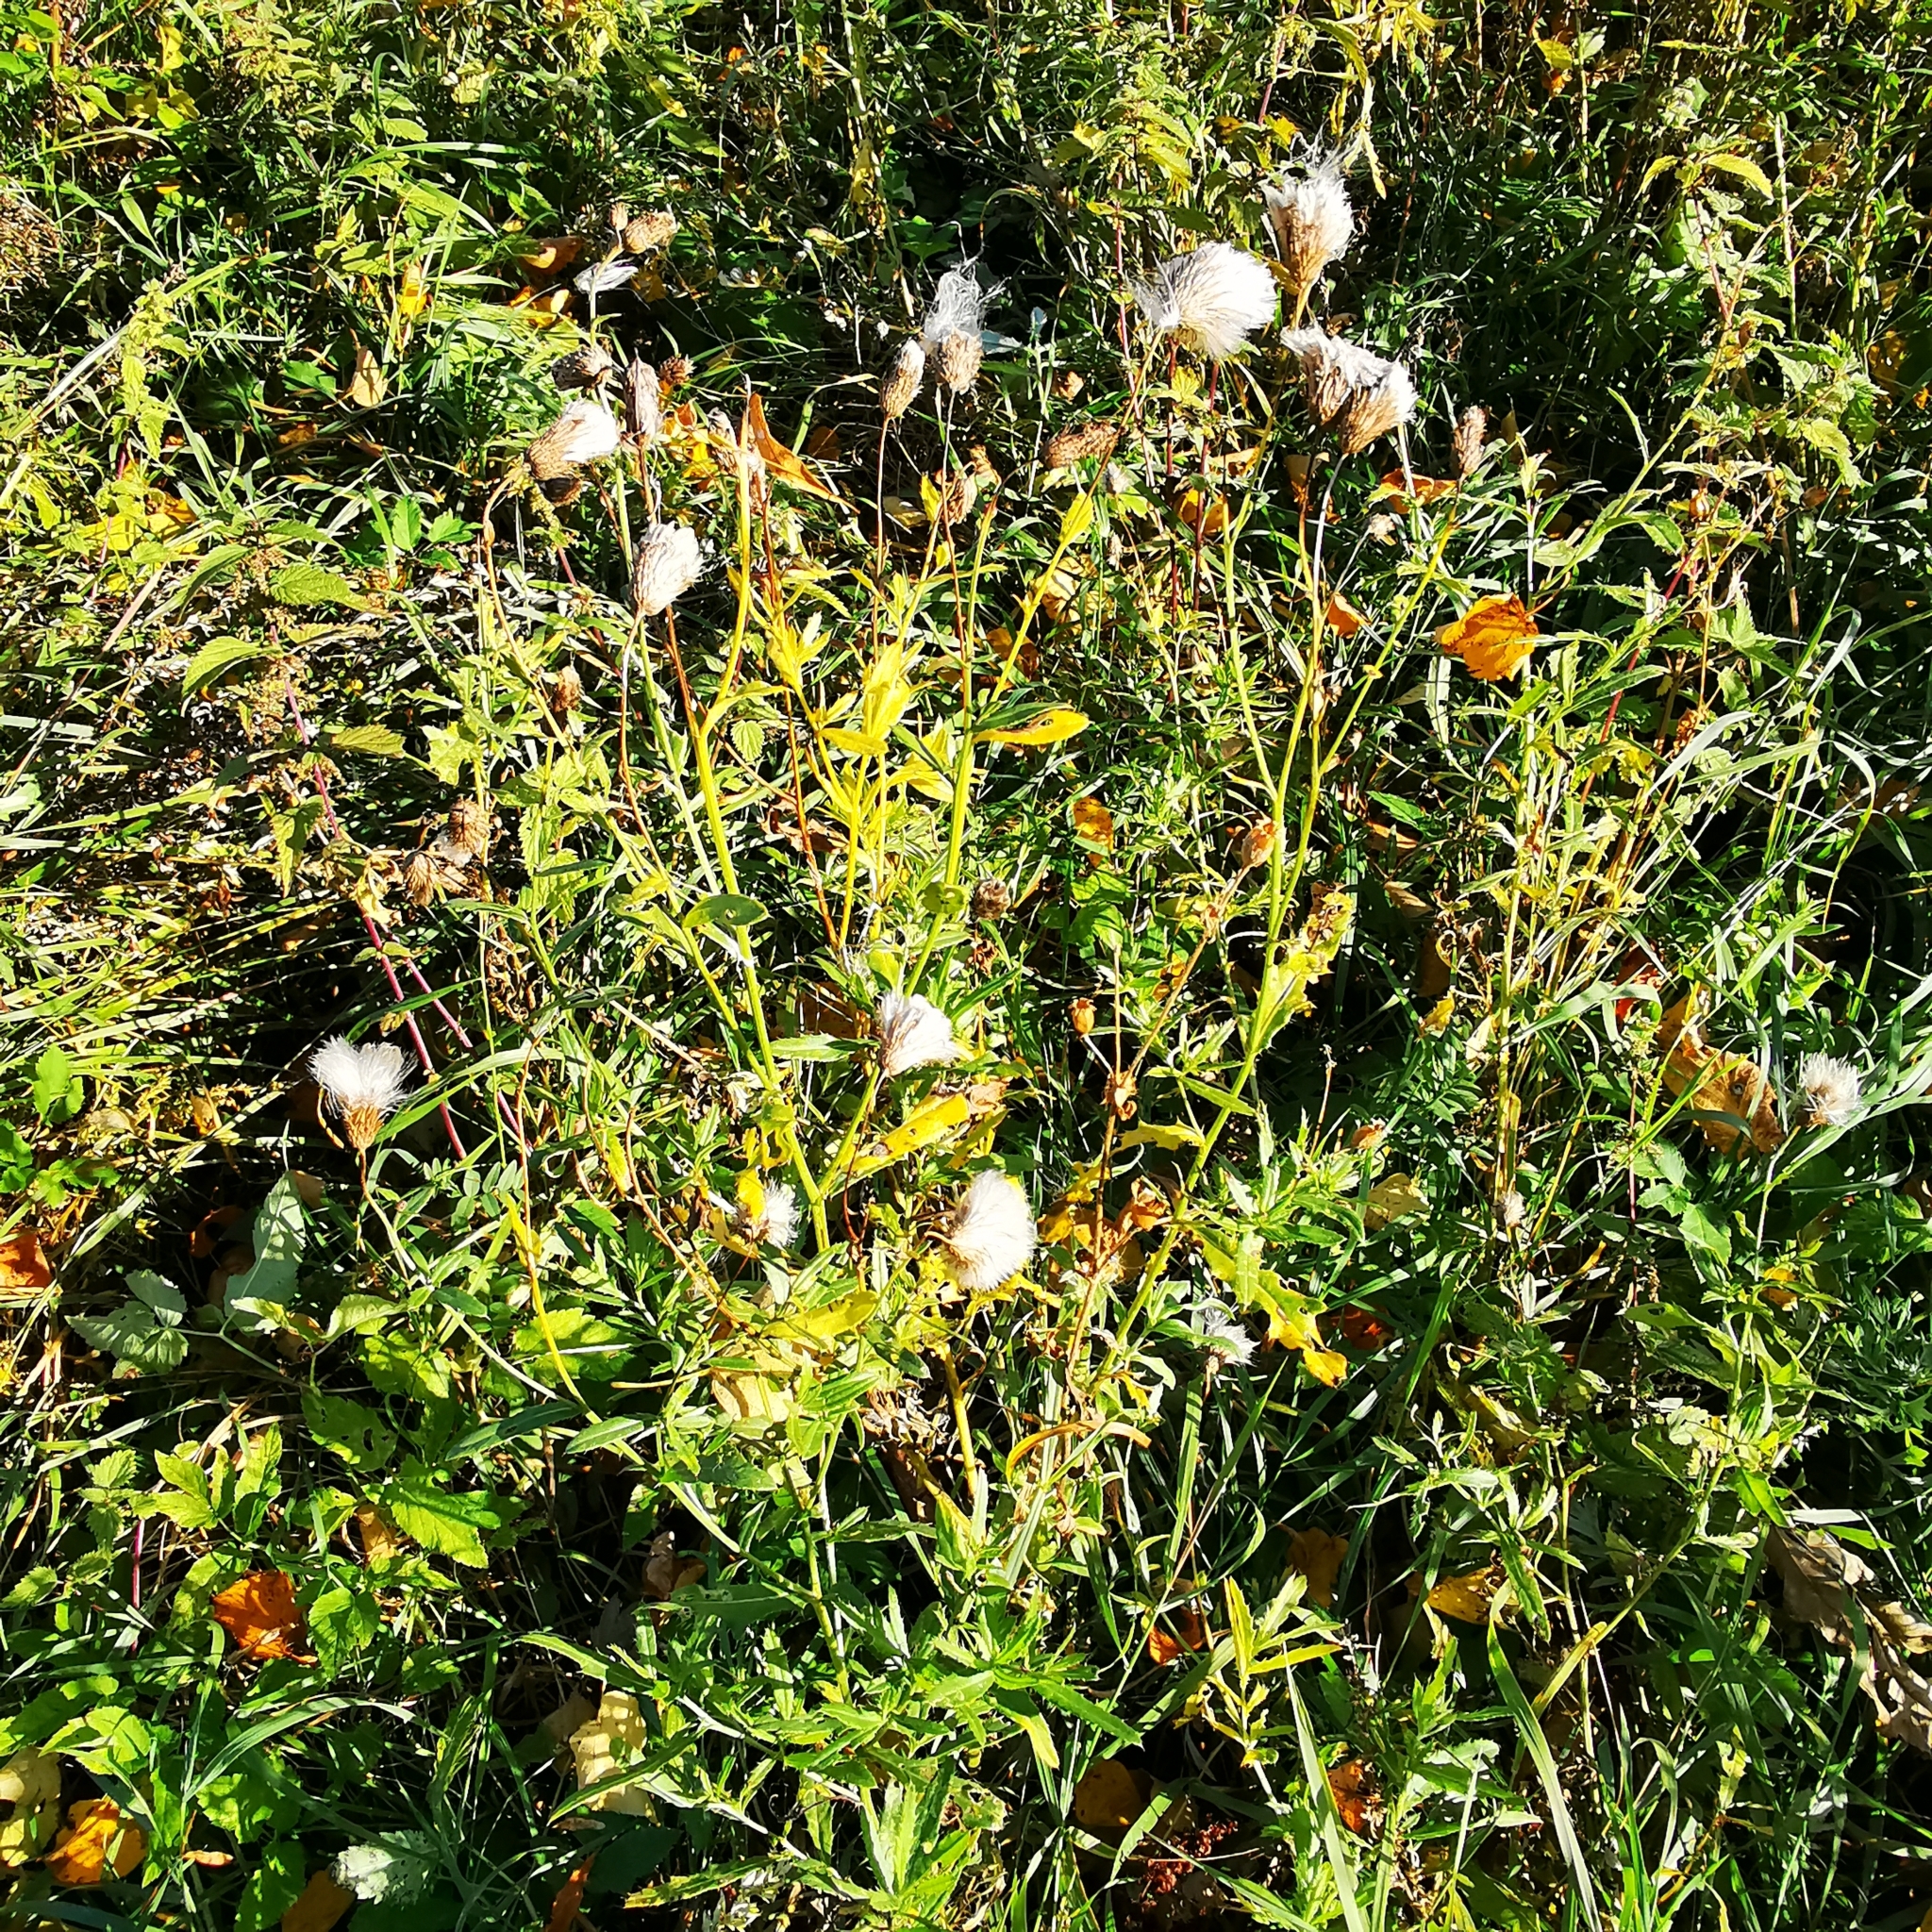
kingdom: Plantae
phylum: Tracheophyta
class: Magnoliopsida
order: Asterales
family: Asteraceae
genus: Cirsium
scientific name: Cirsium arvense
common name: Creeping thistle
